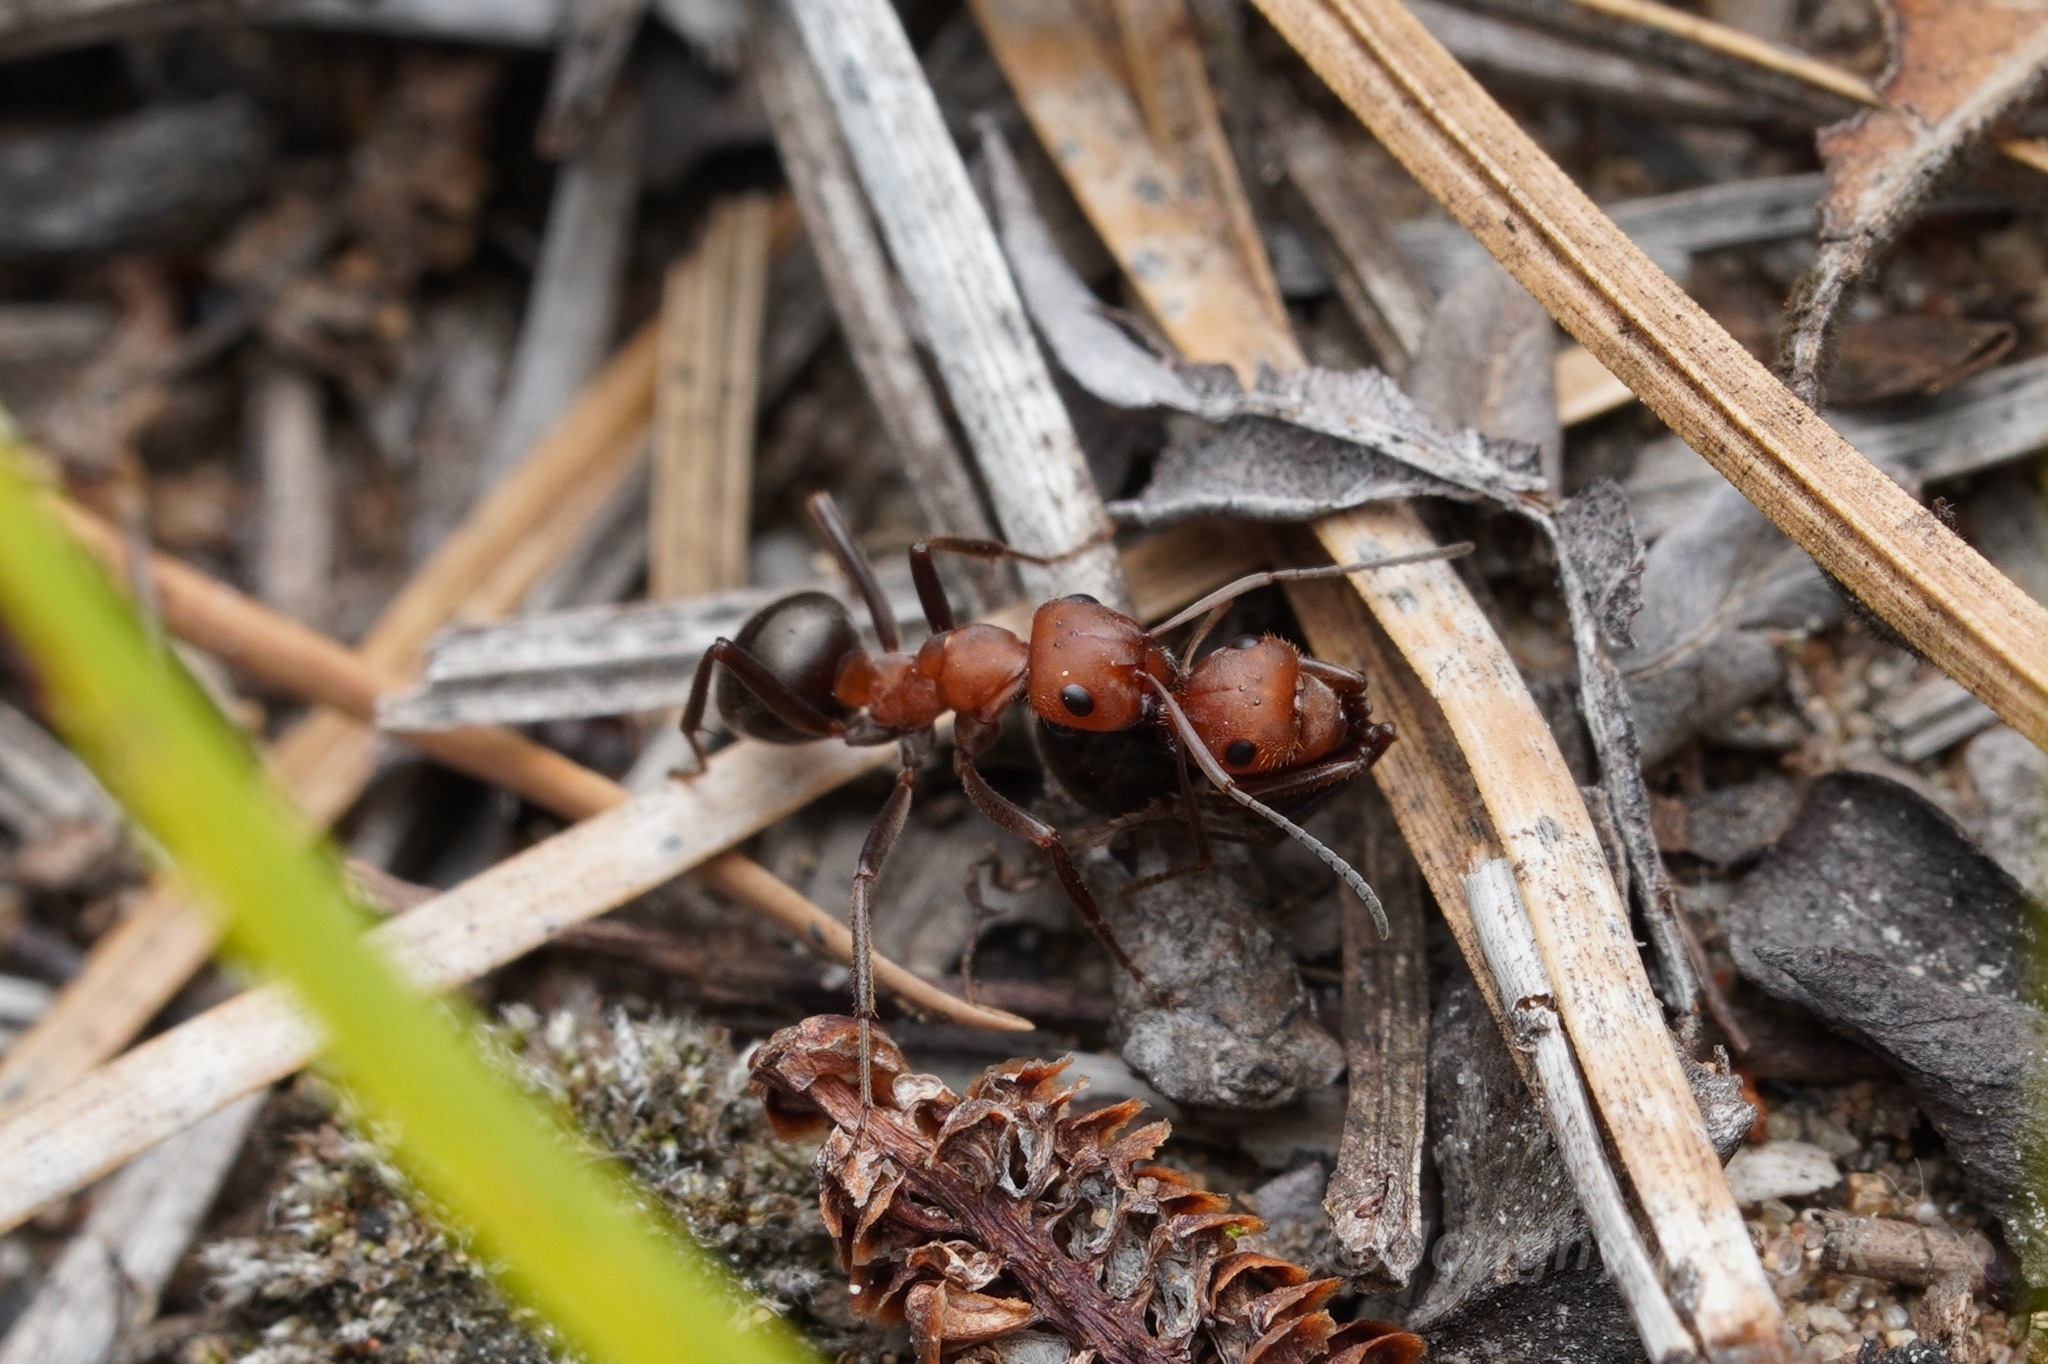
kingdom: Animalia
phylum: Arthropoda
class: Insecta
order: Hymenoptera
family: Formicidae
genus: Formica
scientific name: Formica obscuriventris
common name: Northern red wood ant
